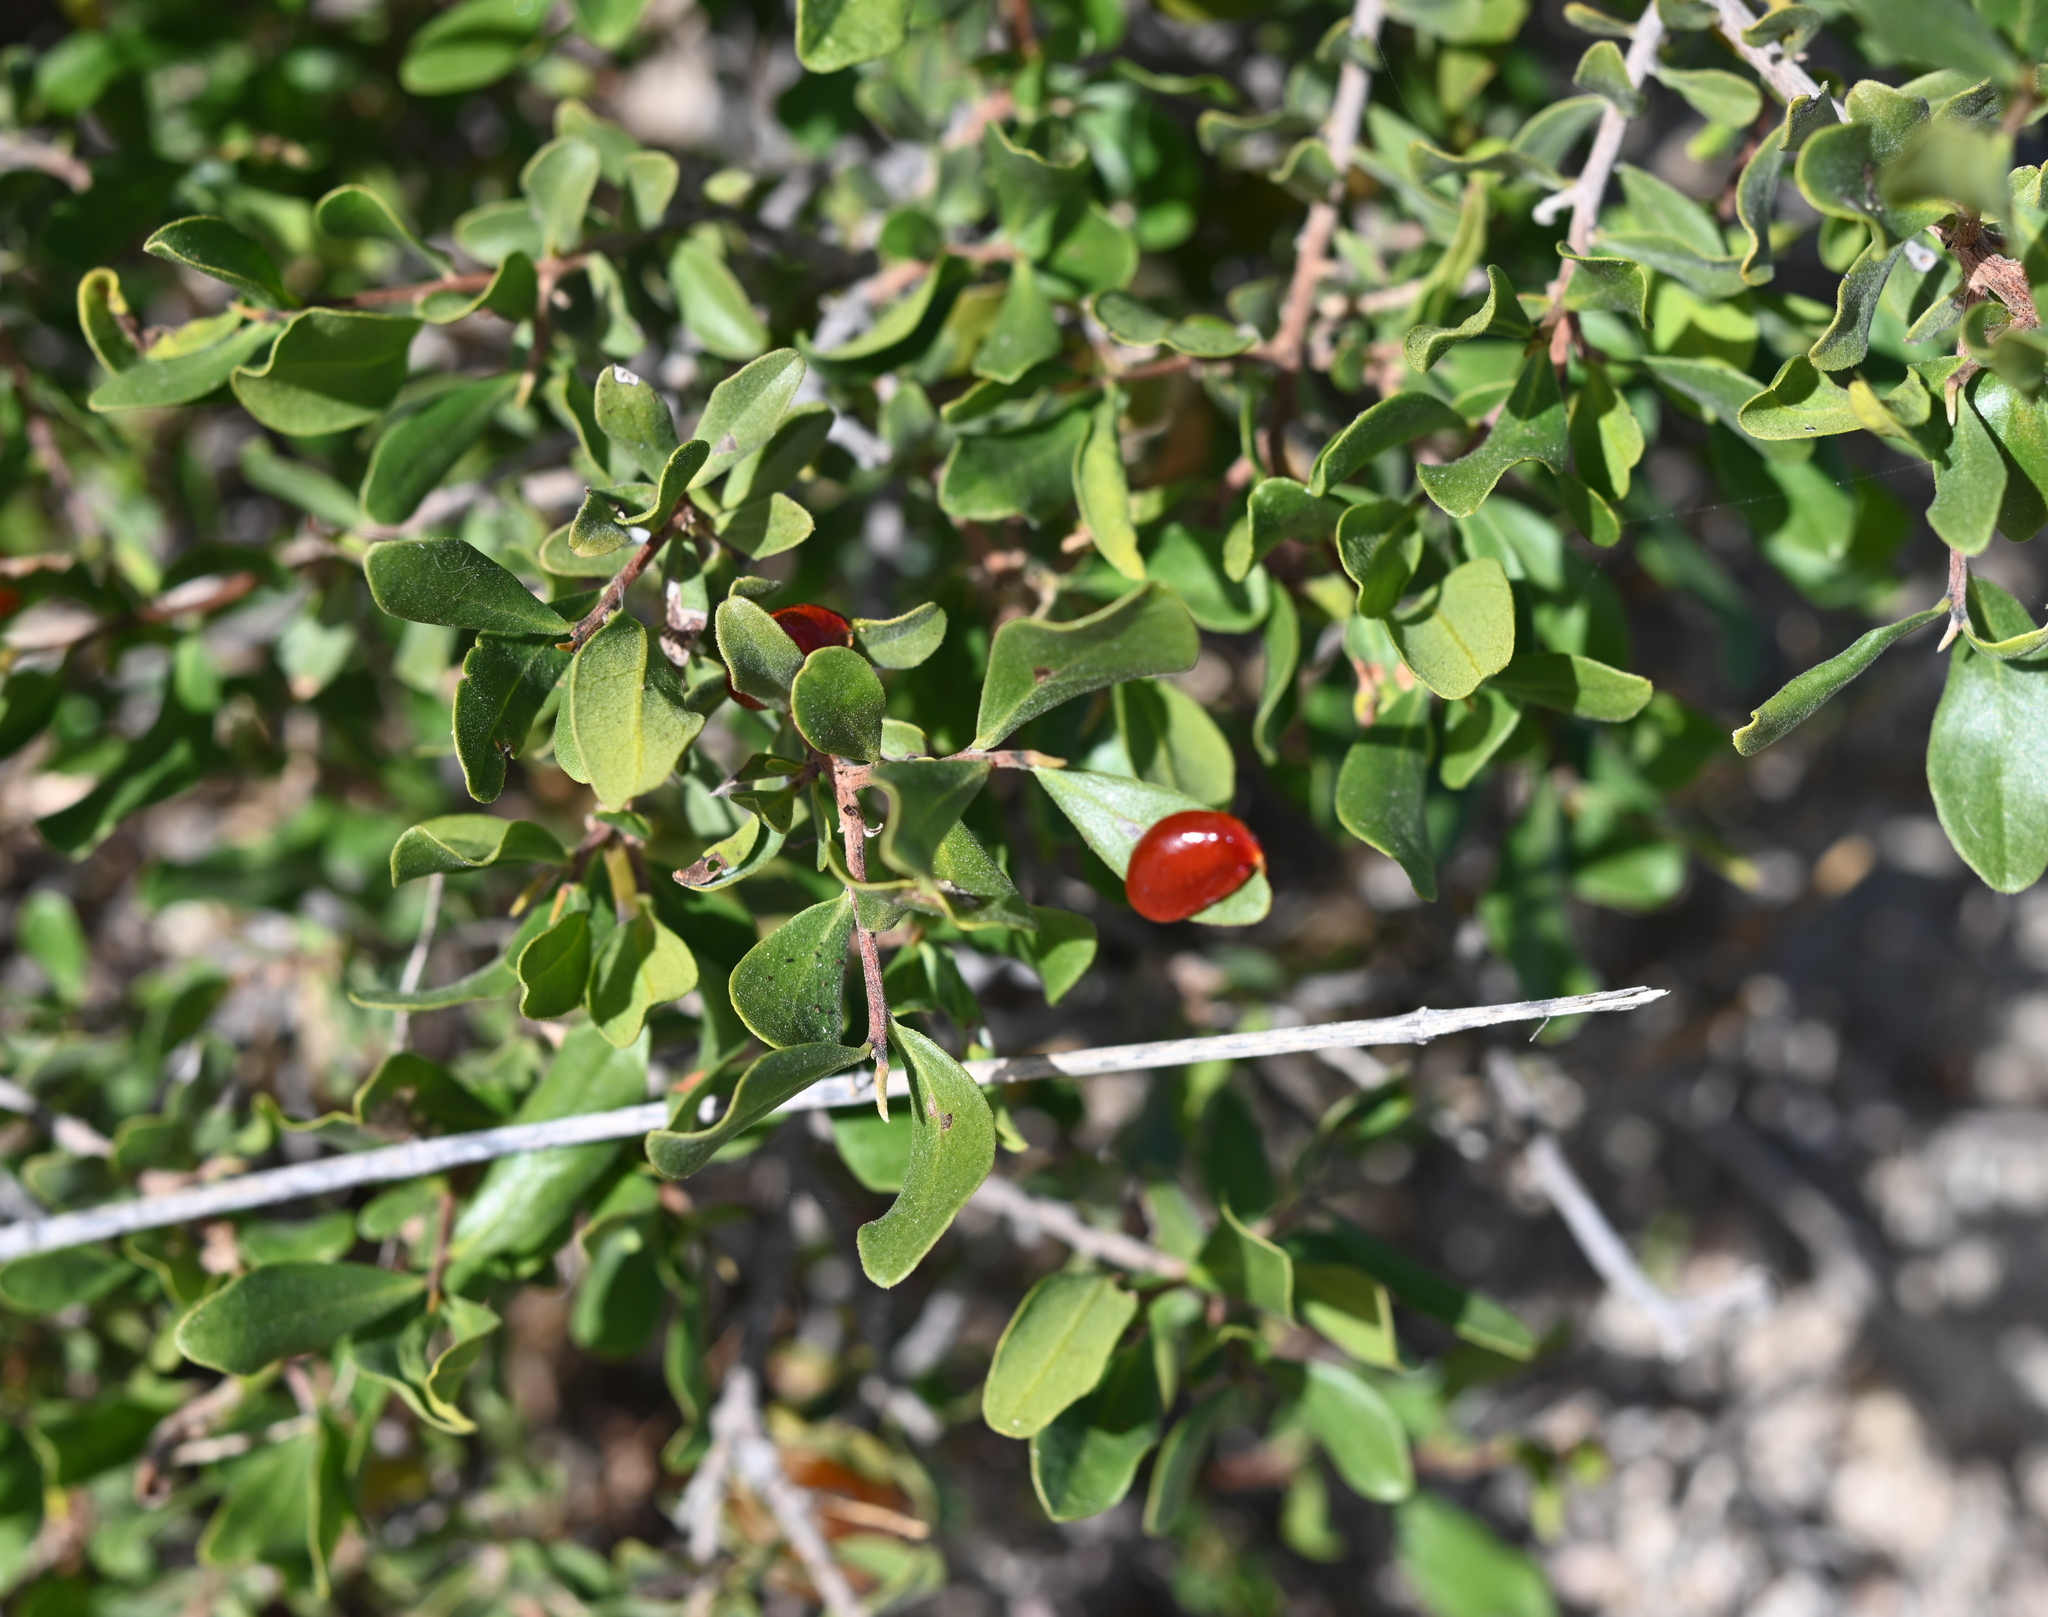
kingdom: Plantae
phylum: Tracheophyta
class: Magnoliopsida
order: Ericales
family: Ebenaceae
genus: Diospyros
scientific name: Diospyros intricata
